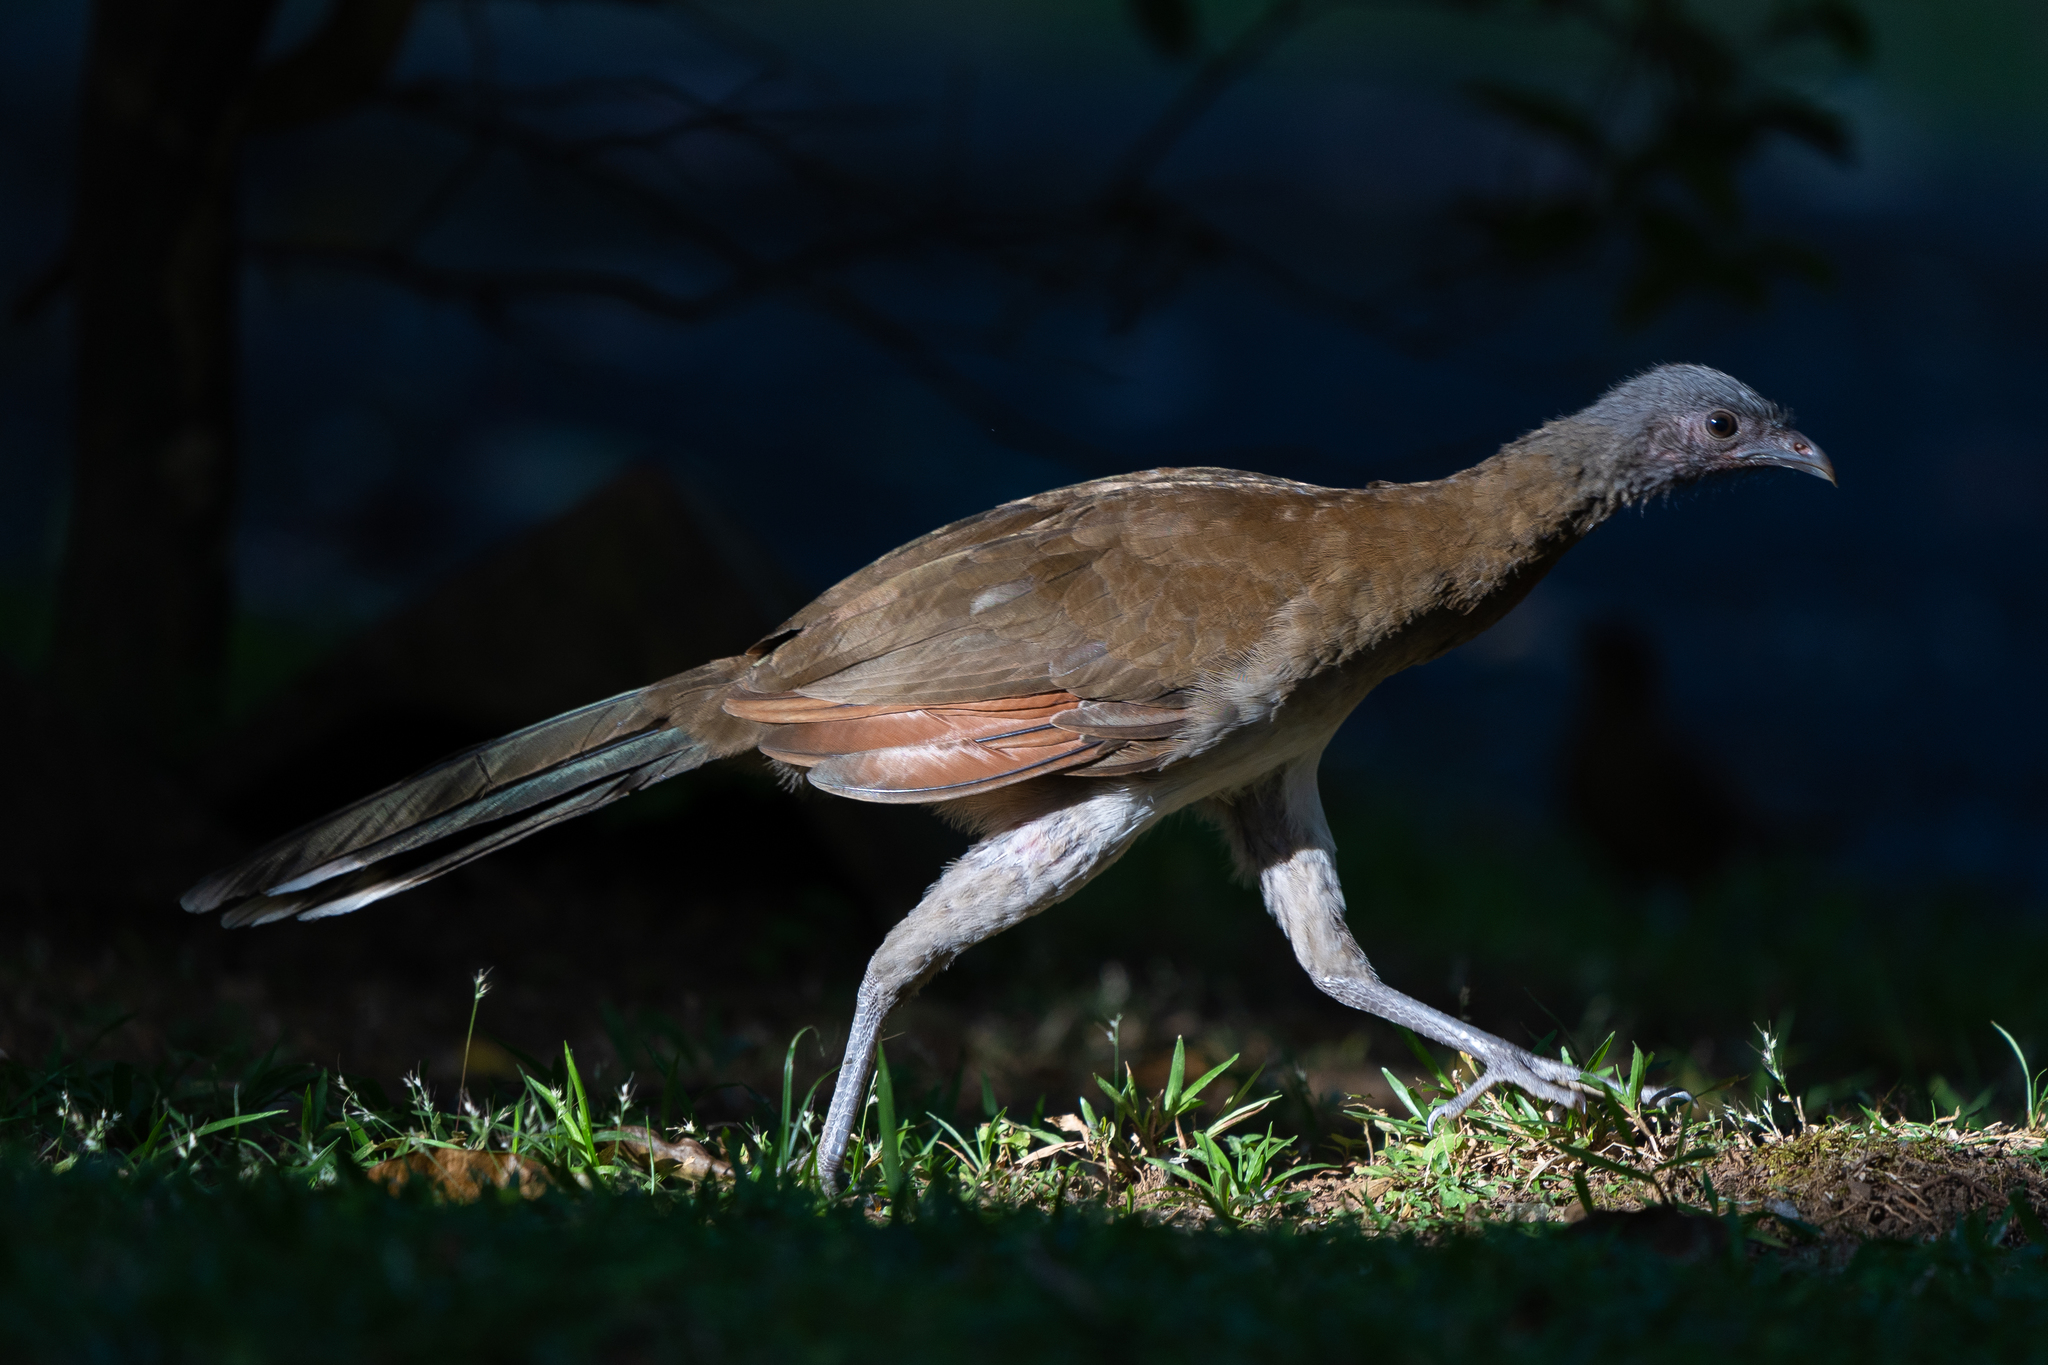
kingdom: Animalia
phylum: Chordata
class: Aves
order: Galliformes
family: Cracidae
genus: Ortalis
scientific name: Ortalis cinereiceps
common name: Grey-headed chachalaca
